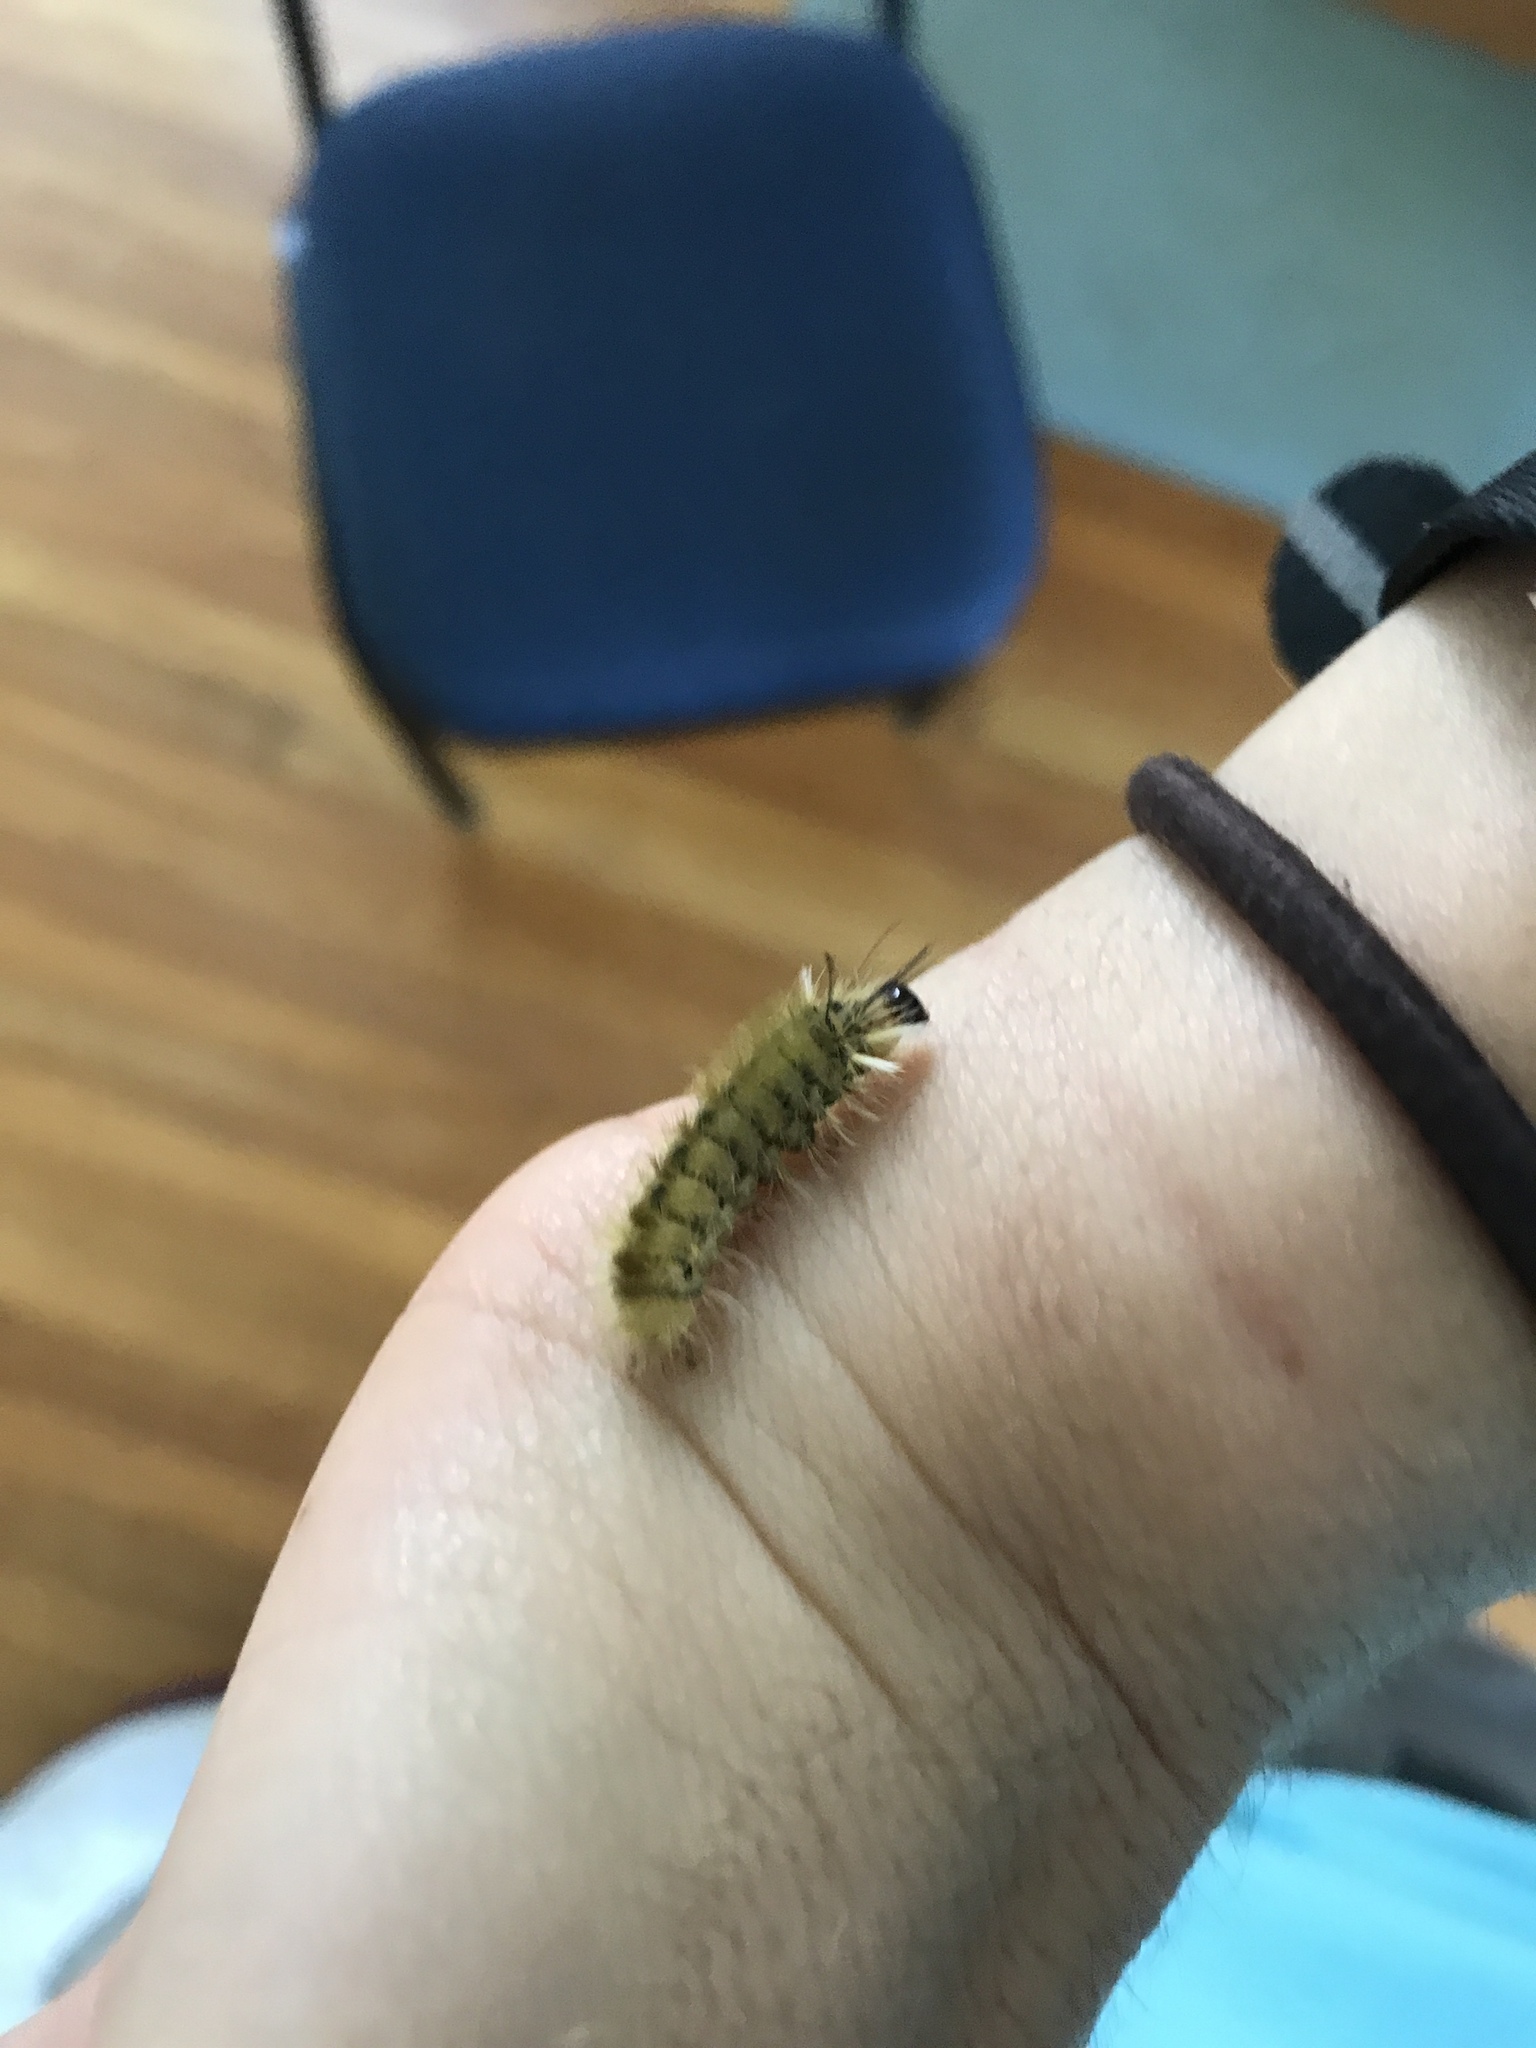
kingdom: Animalia
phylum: Arthropoda
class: Insecta
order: Lepidoptera
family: Erebidae
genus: Halysidota
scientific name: Halysidota tessellaris
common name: Banded tussock moth
